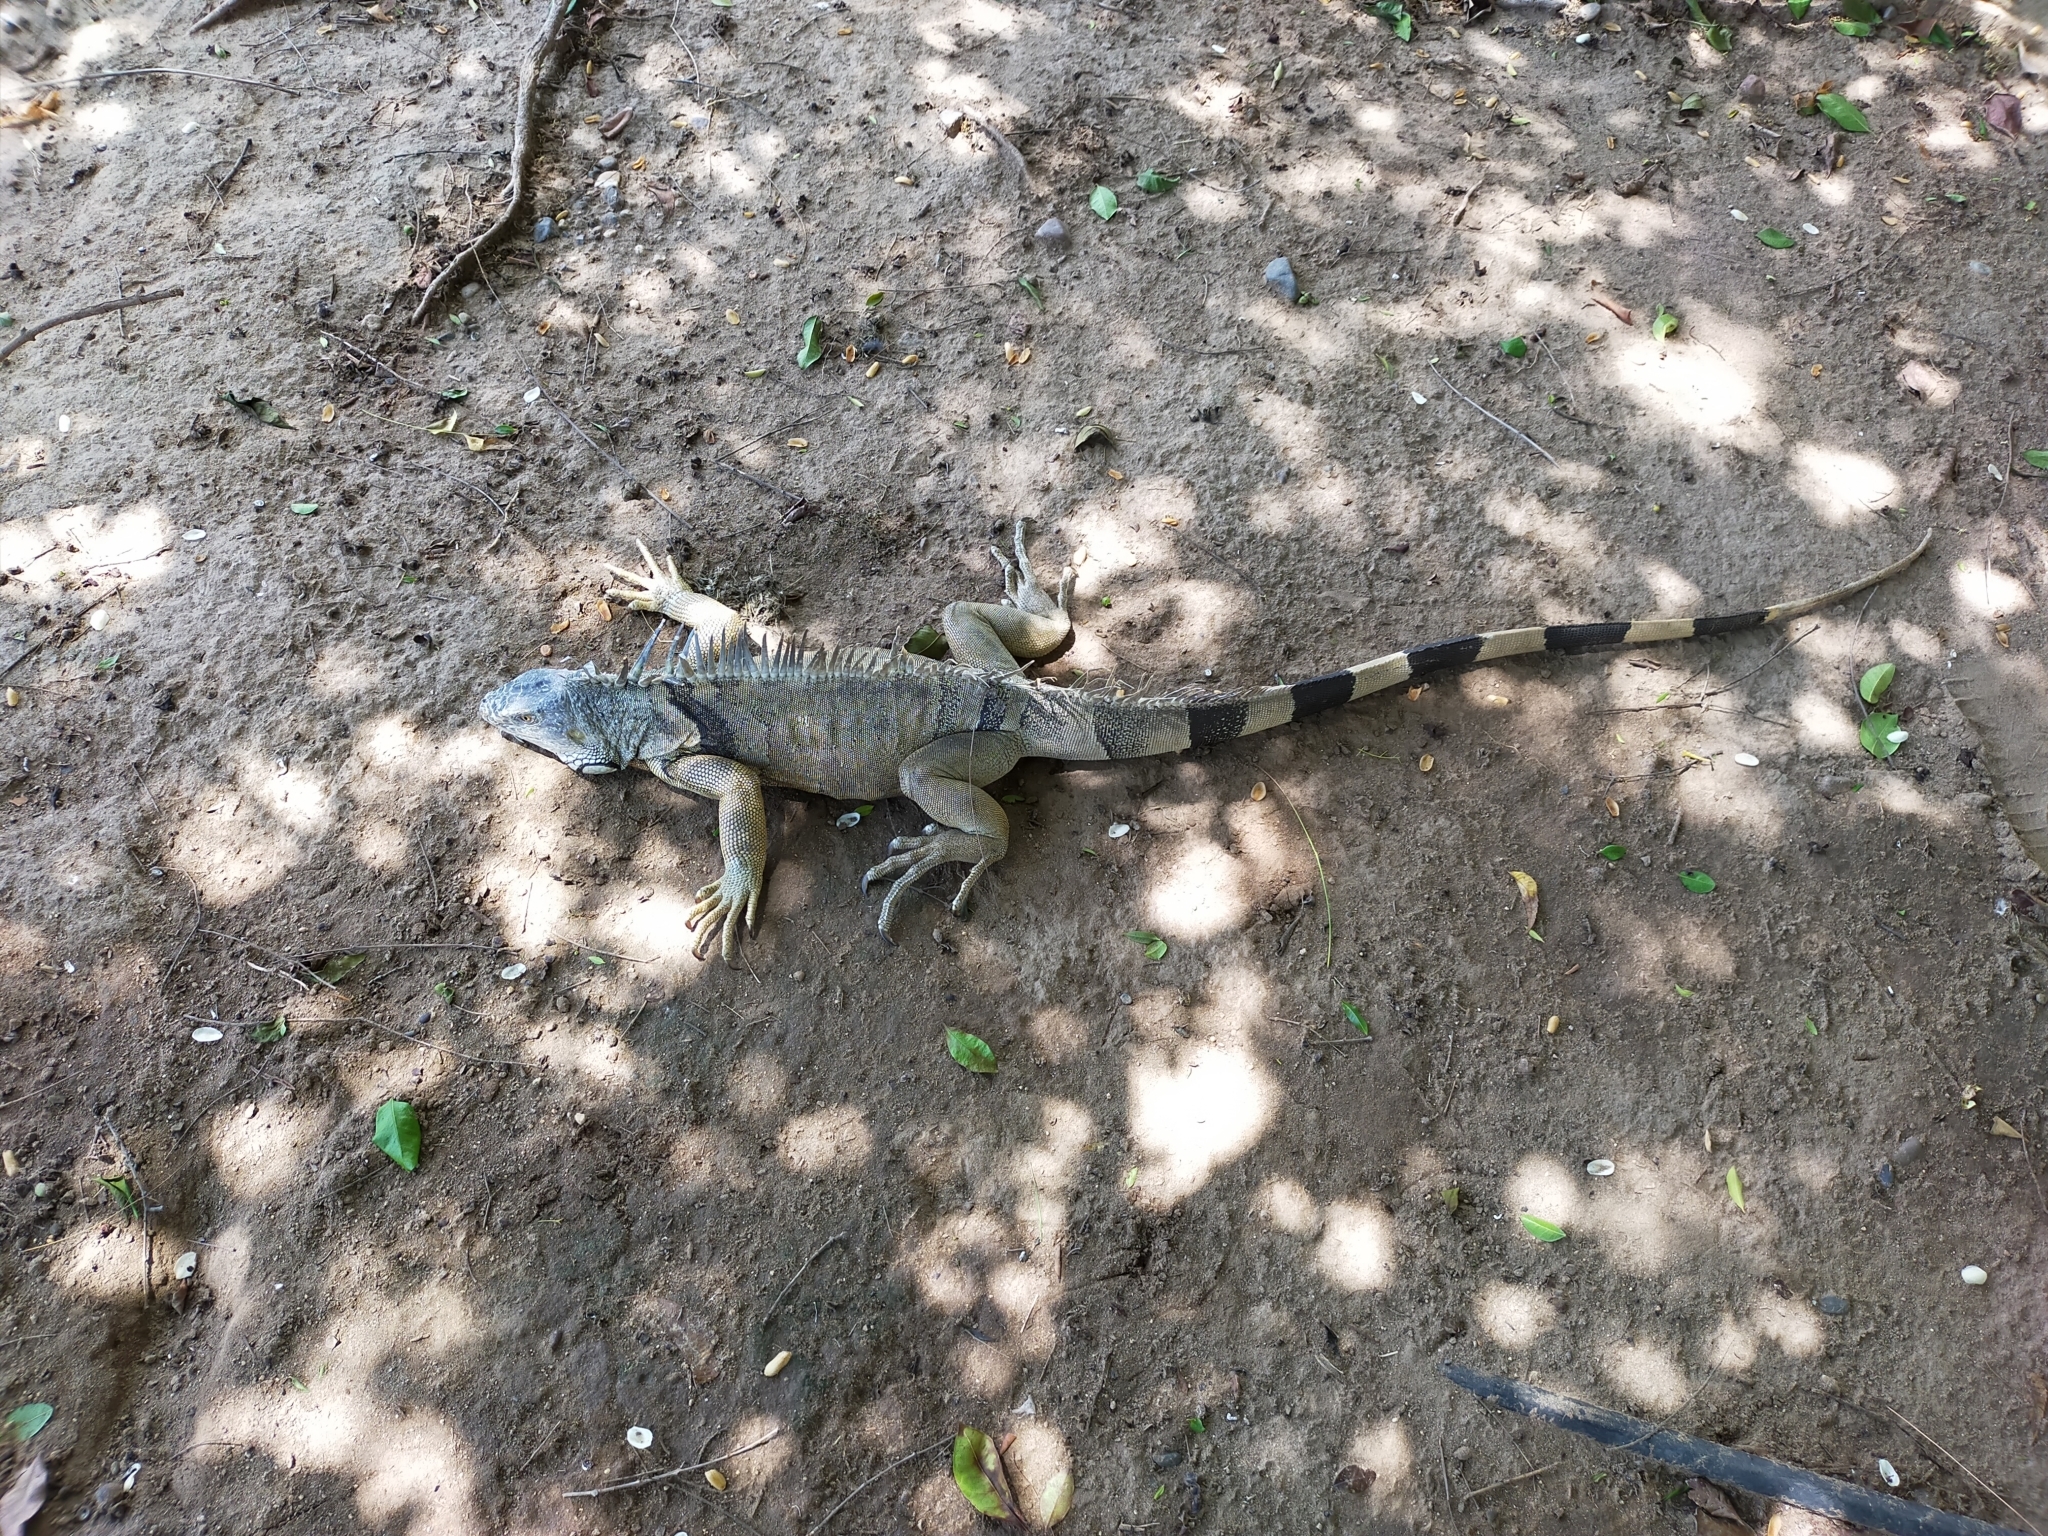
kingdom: Animalia
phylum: Chordata
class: Squamata
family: Iguanidae
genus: Iguana
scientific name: Iguana iguana
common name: Green iguana
